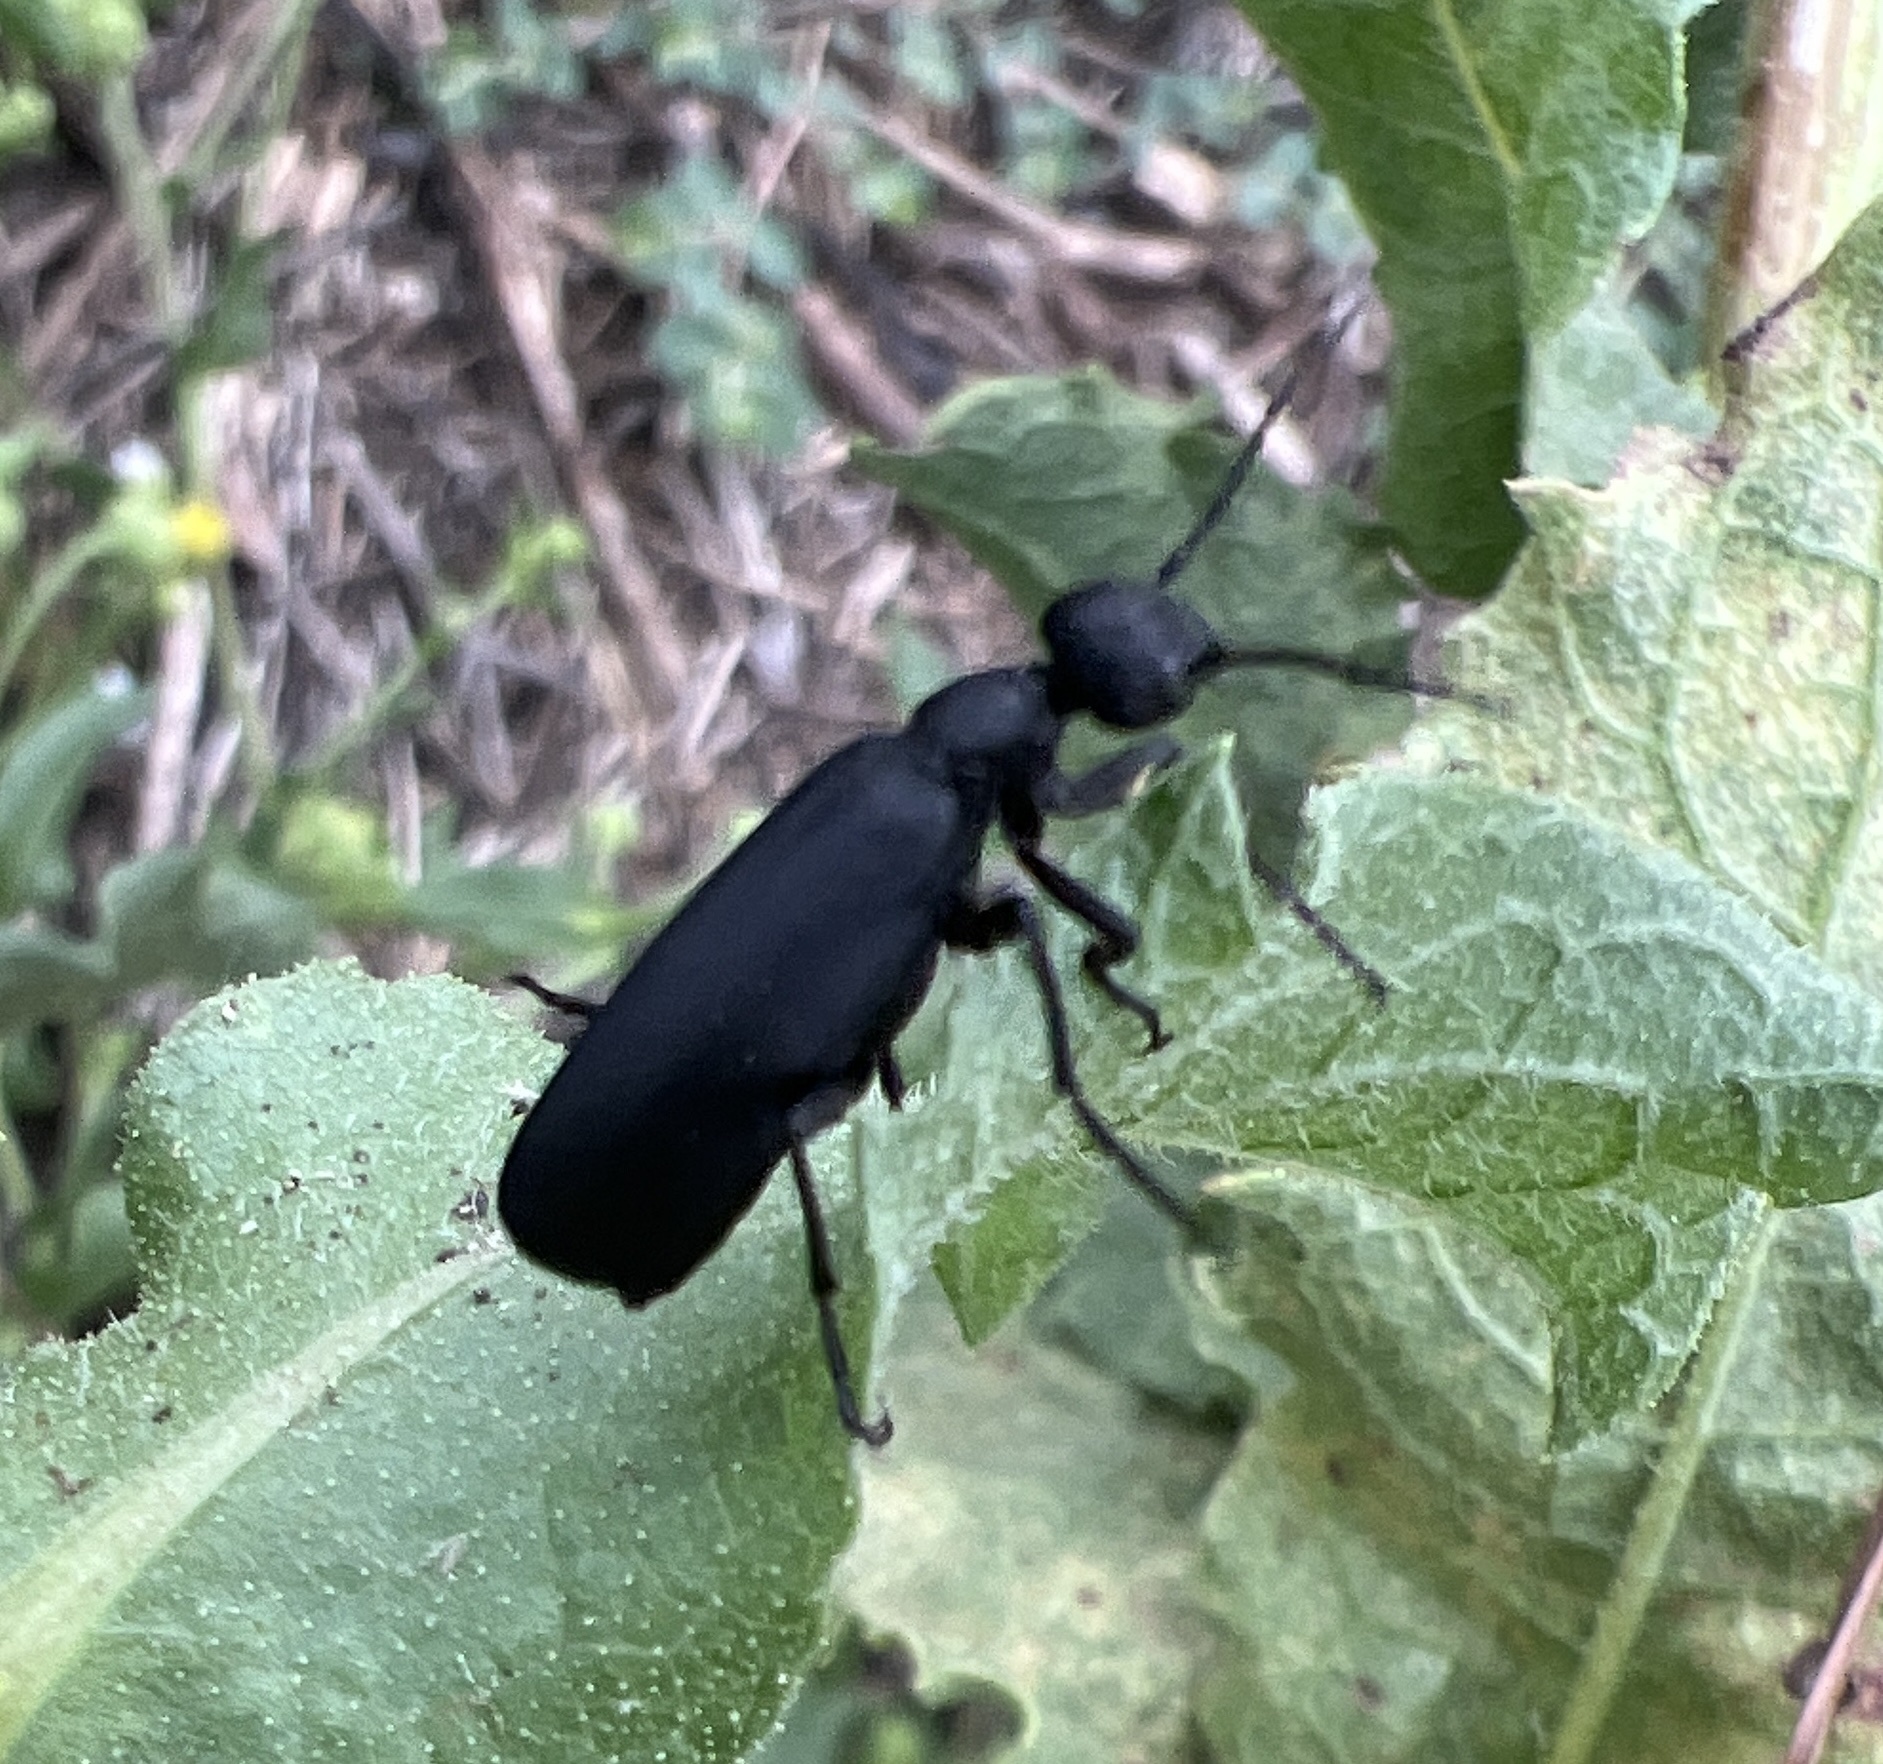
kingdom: Animalia
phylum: Arthropoda
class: Insecta
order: Coleoptera
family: Meloidae
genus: Epicauta
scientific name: Epicauta pensylvanica
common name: Black blister beetle
